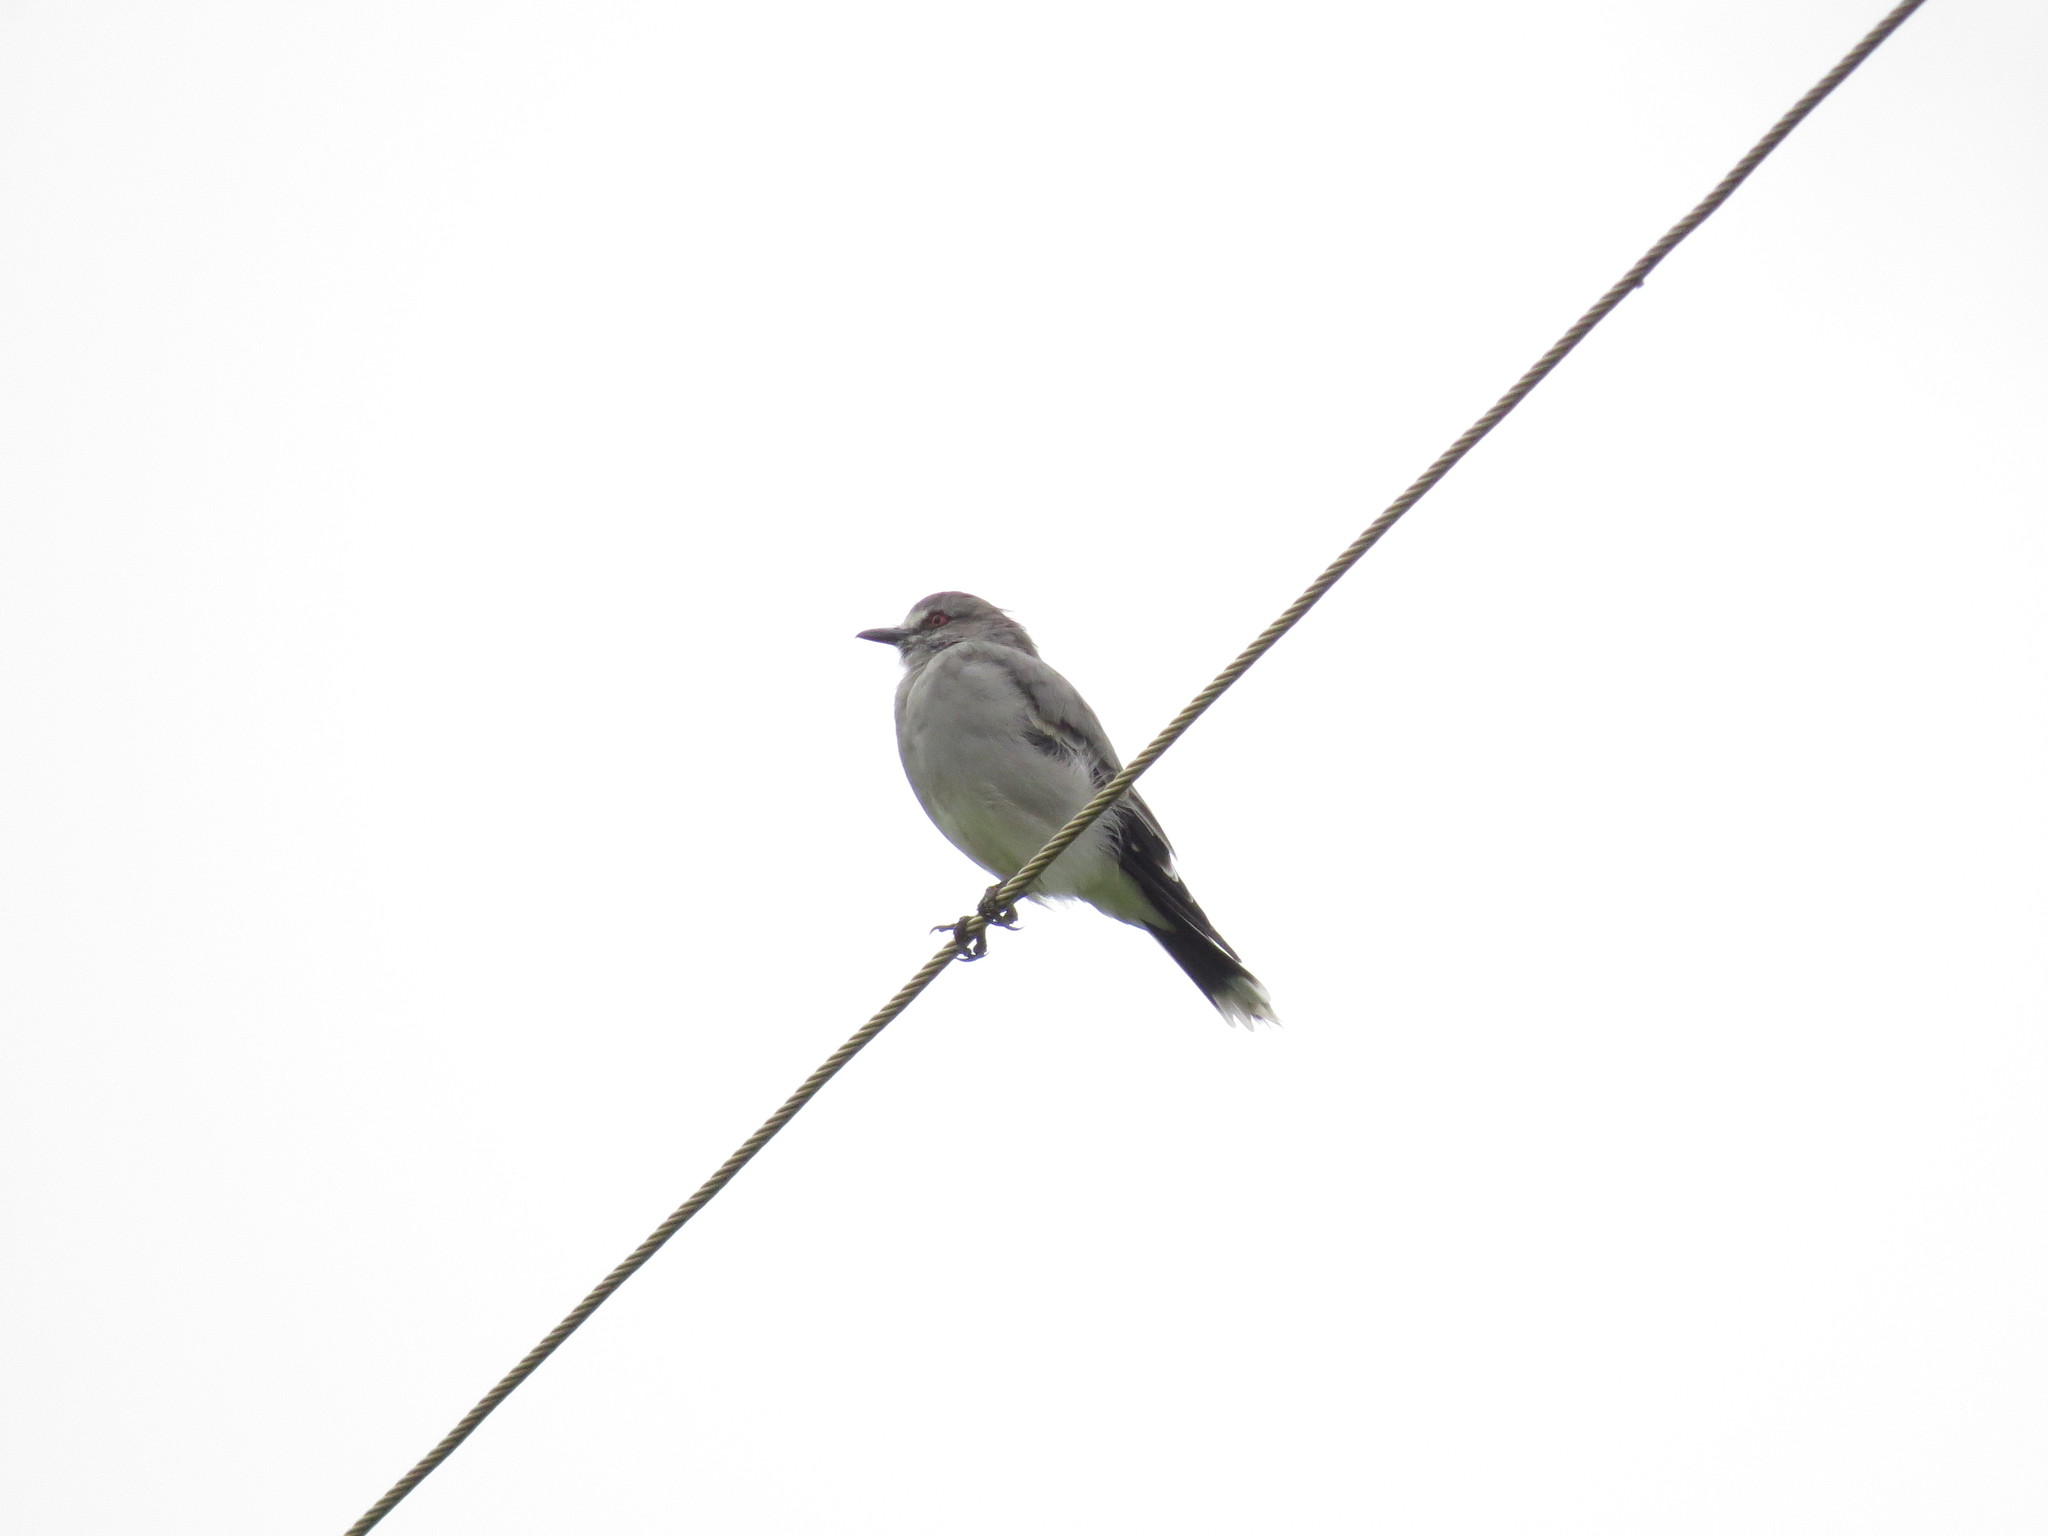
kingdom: Animalia
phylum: Chordata
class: Aves
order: Passeriformes
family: Tyrannidae
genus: Xolmis
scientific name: Xolmis cinereus
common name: Grey monjita
